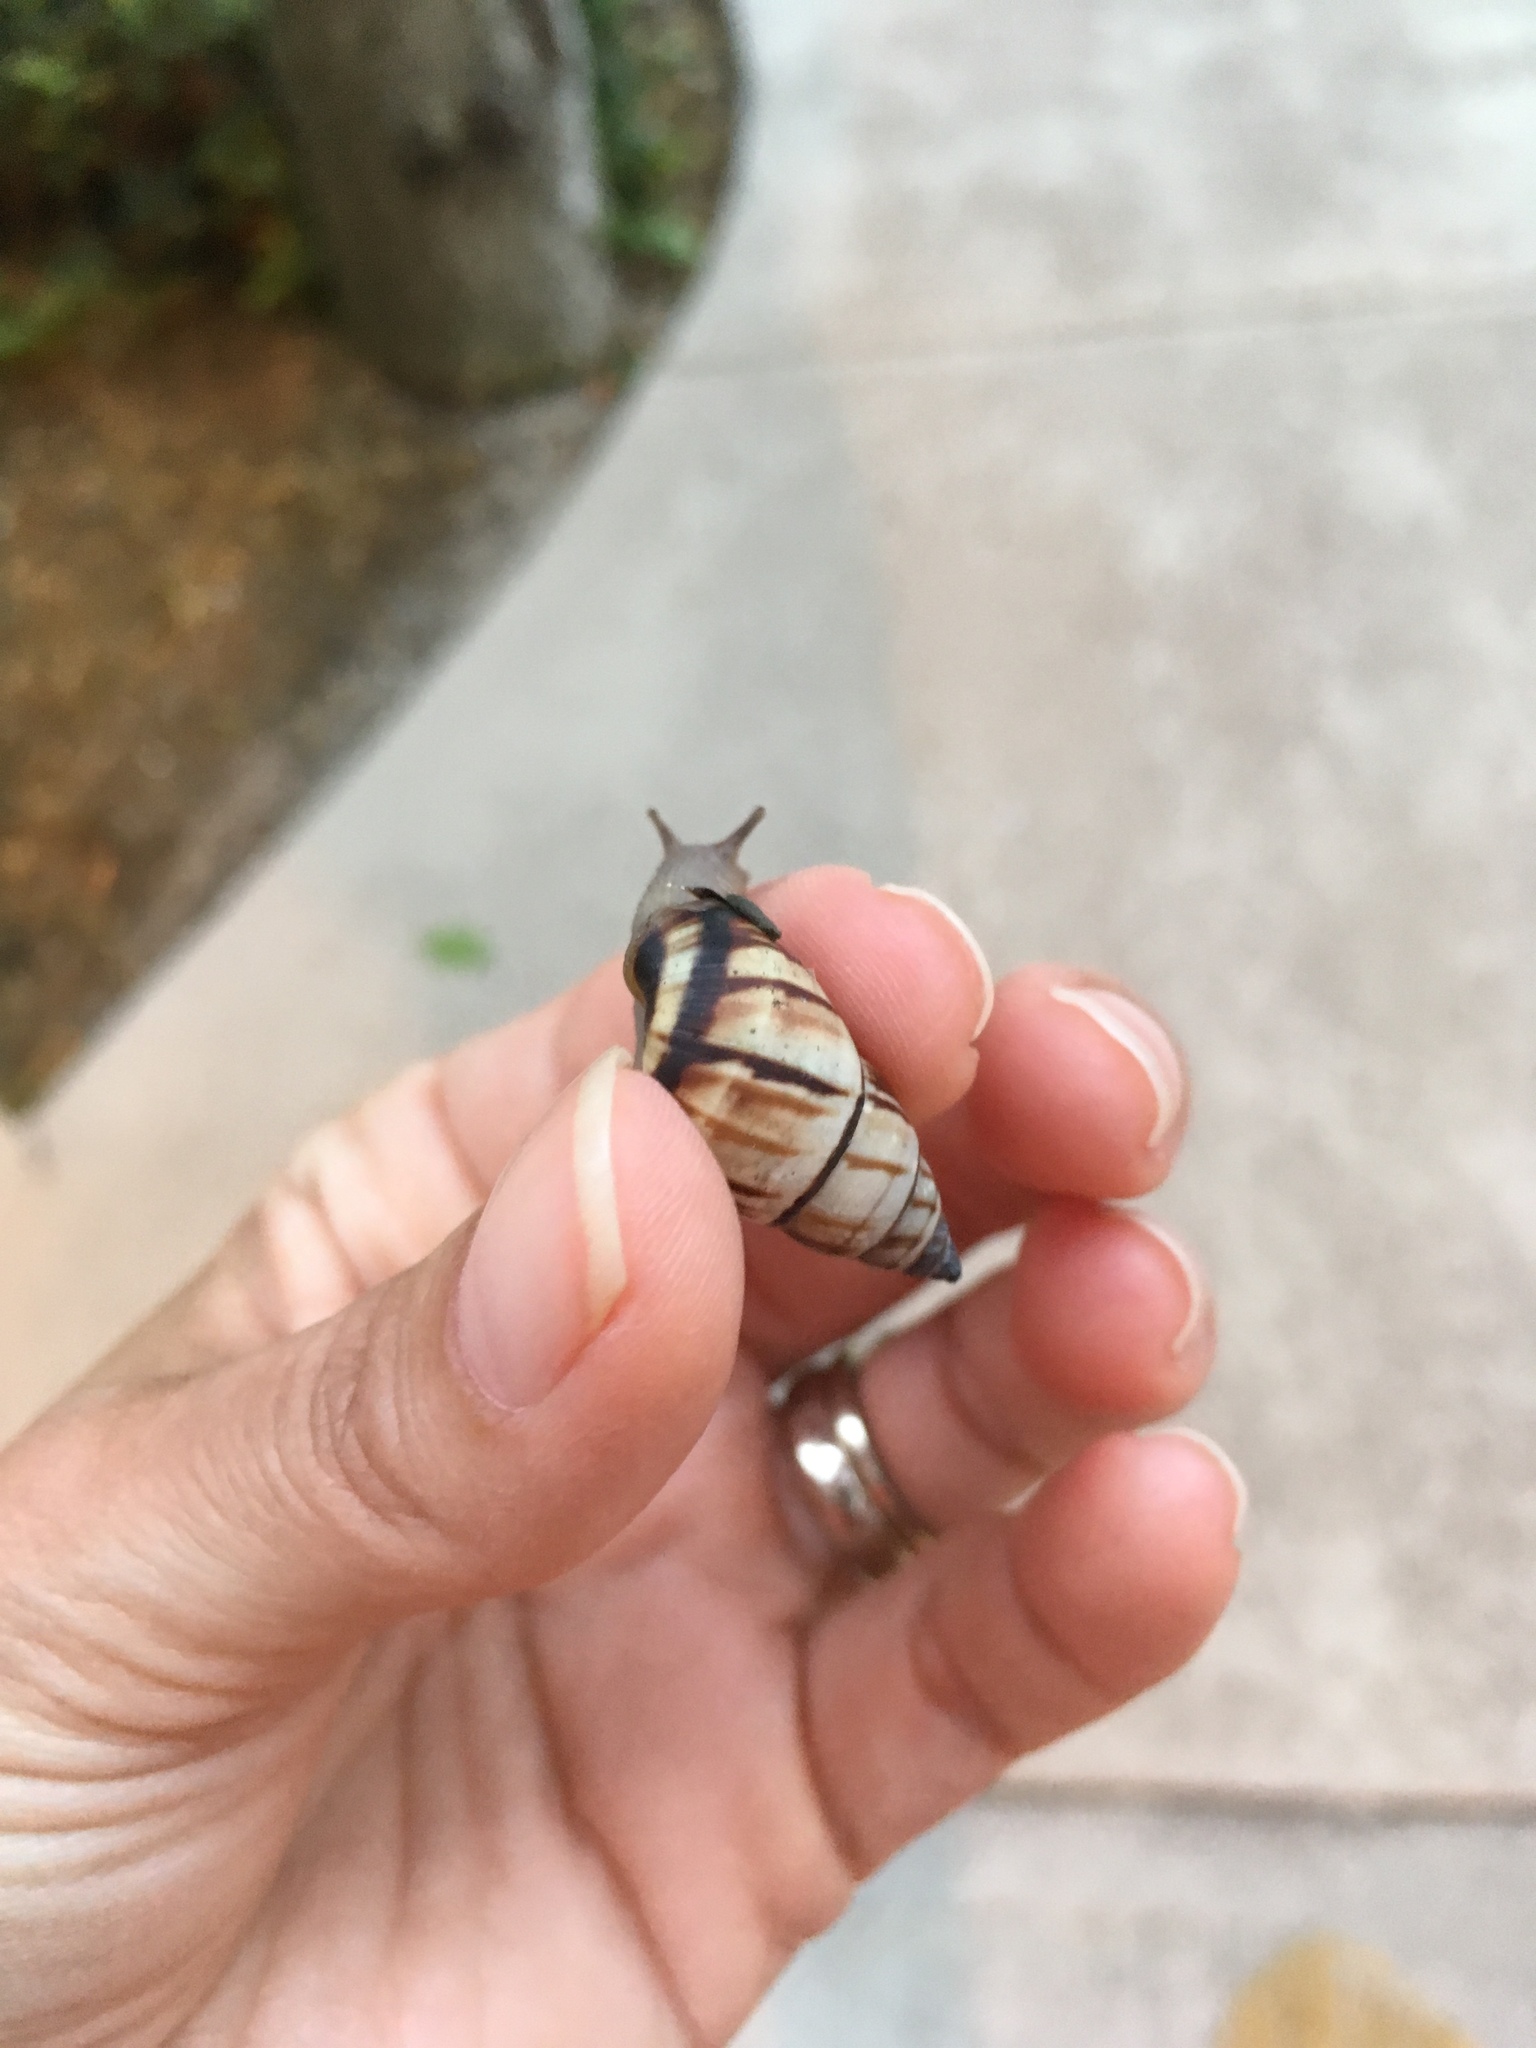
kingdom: Animalia
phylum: Mollusca
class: Gastropoda
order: Stylommatophora
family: Bulimulidae
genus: Drymaeus
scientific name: Drymaeus
